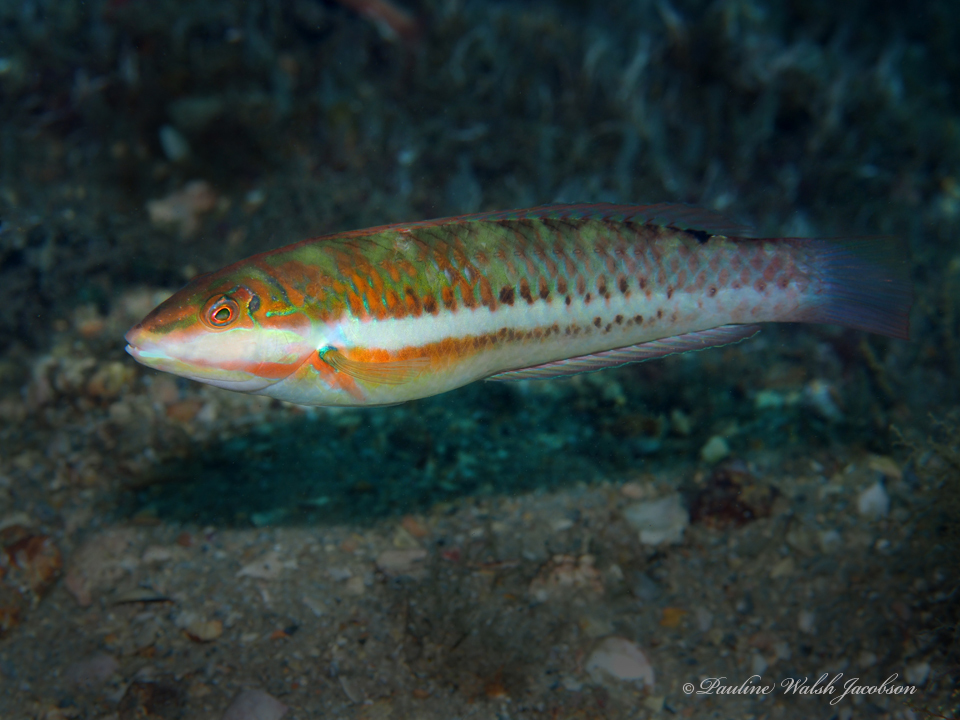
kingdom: Animalia
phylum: Chordata
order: Perciformes
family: Labridae
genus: Halichoeres
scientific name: Halichoeres poeyi
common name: Blackear wrasse
